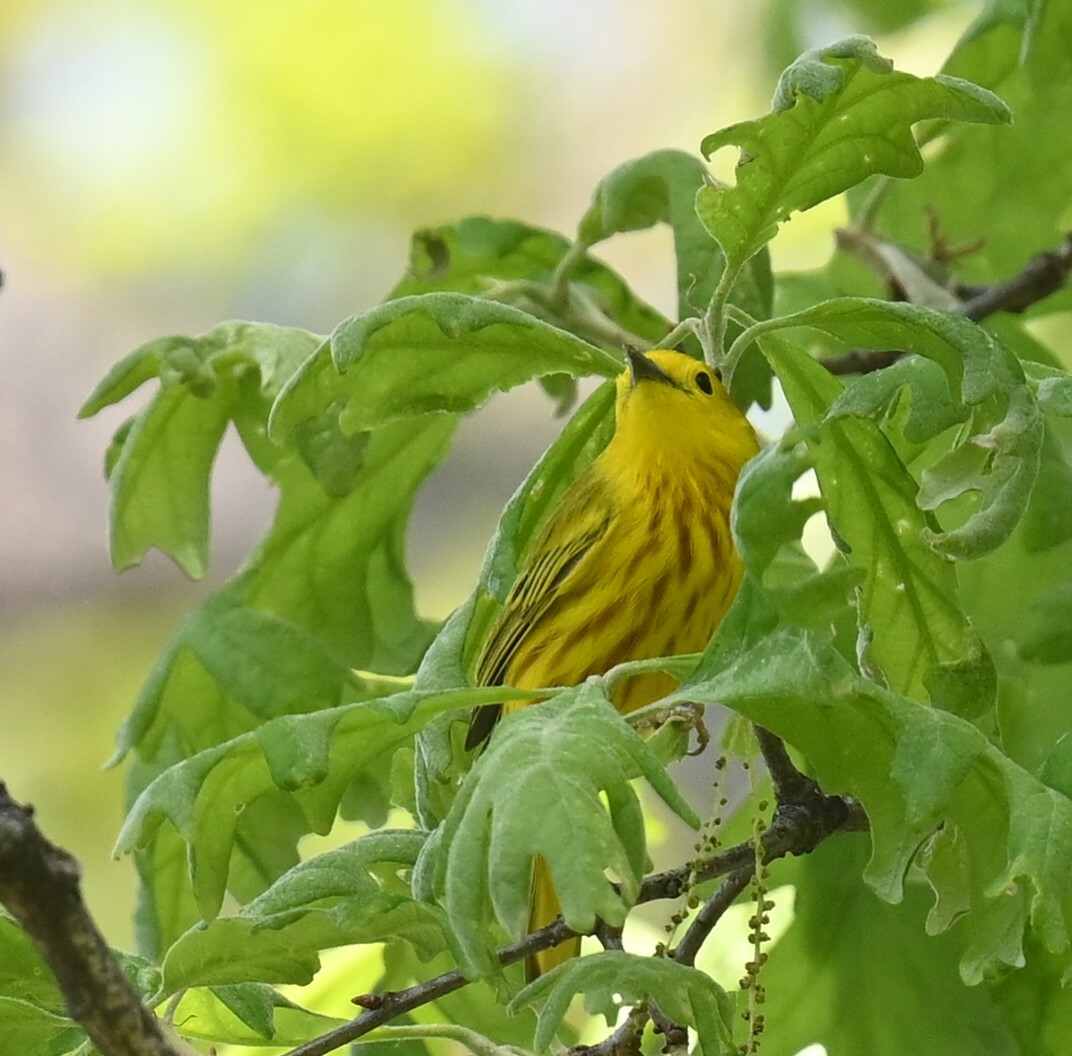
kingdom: Animalia
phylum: Chordata
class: Aves
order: Passeriformes
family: Parulidae
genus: Setophaga
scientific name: Setophaga petechia
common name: Yellow warbler
